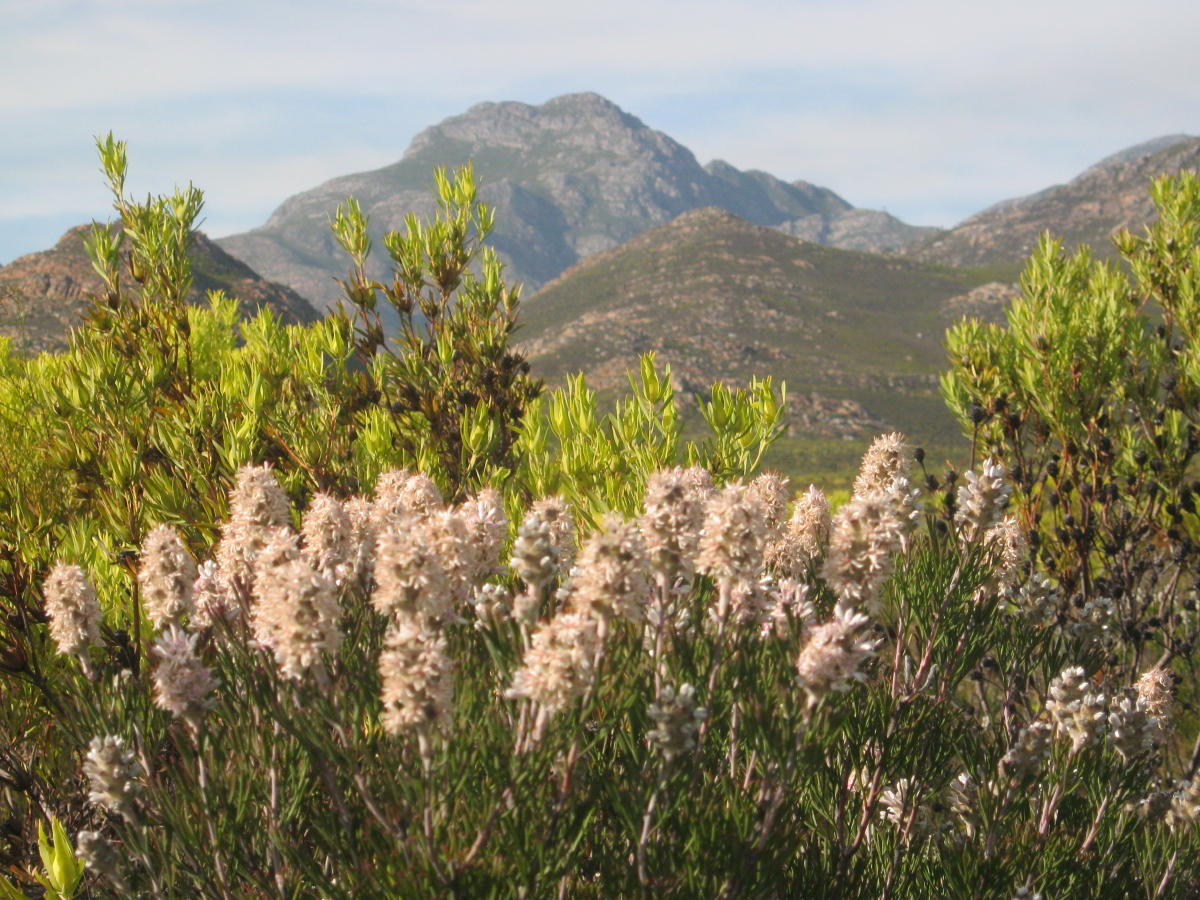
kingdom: Plantae
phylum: Tracheophyta
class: Magnoliopsida
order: Proteales
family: Proteaceae
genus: Paranomus
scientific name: Paranomus dregei
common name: Scented sceptre
